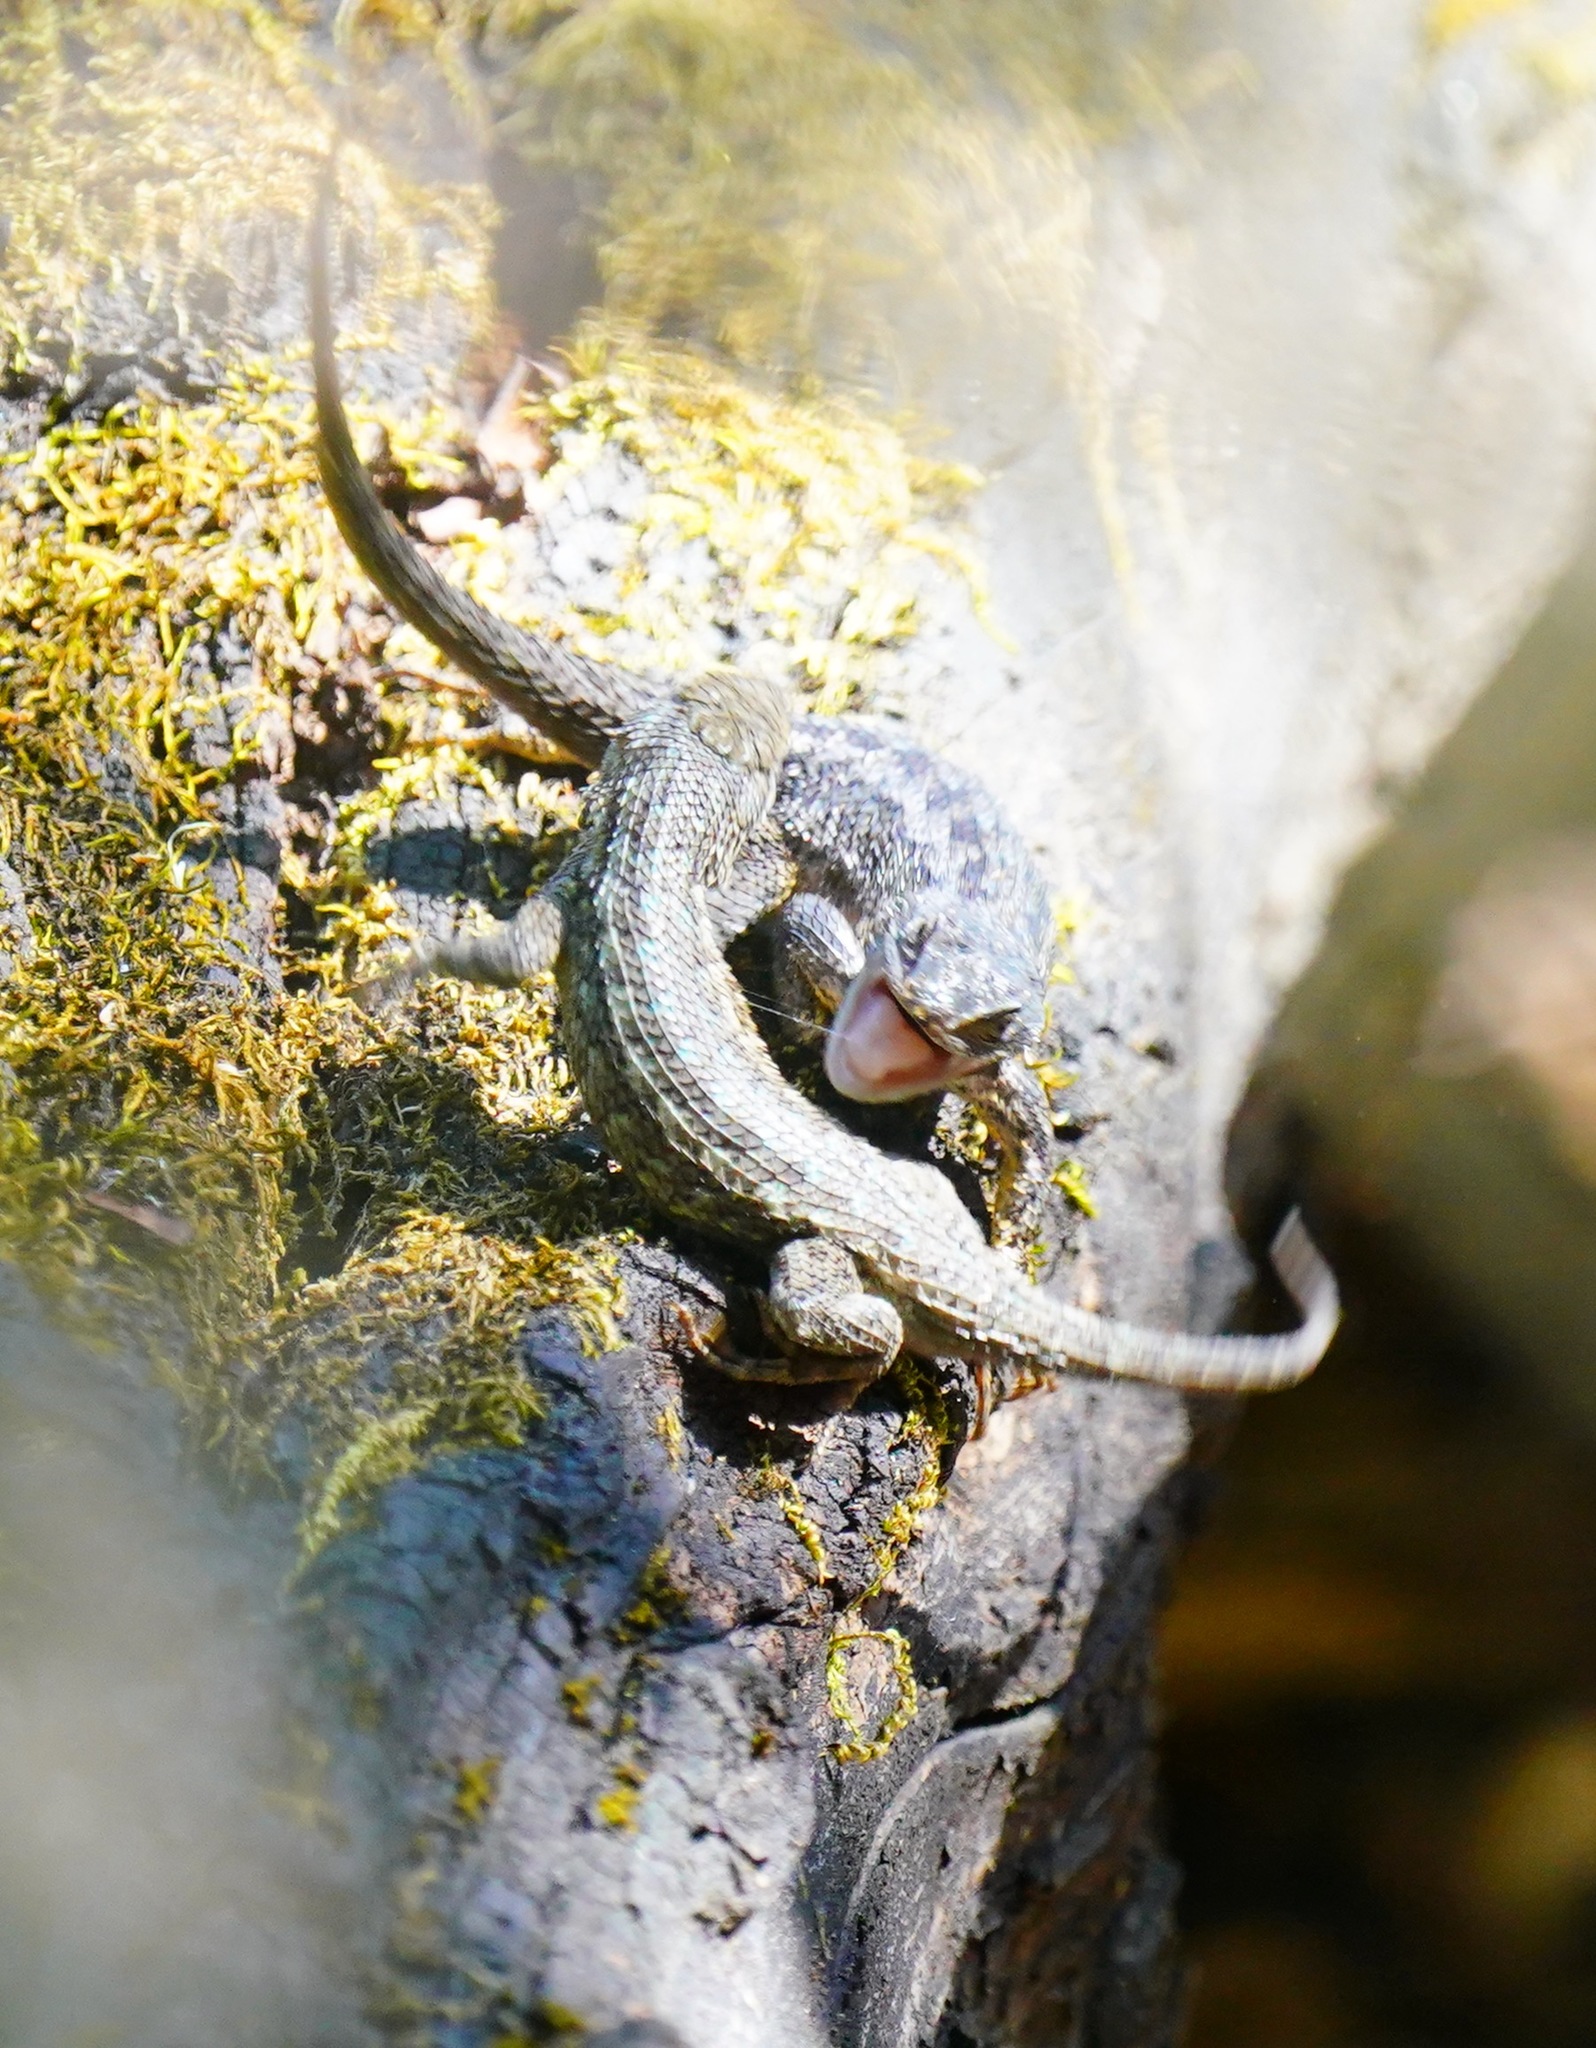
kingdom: Animalia
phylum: Chordata
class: Squamata
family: Phrynosomatidae
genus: Sceloporus
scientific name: Sceloporus occidentalis
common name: Western fence lizard
